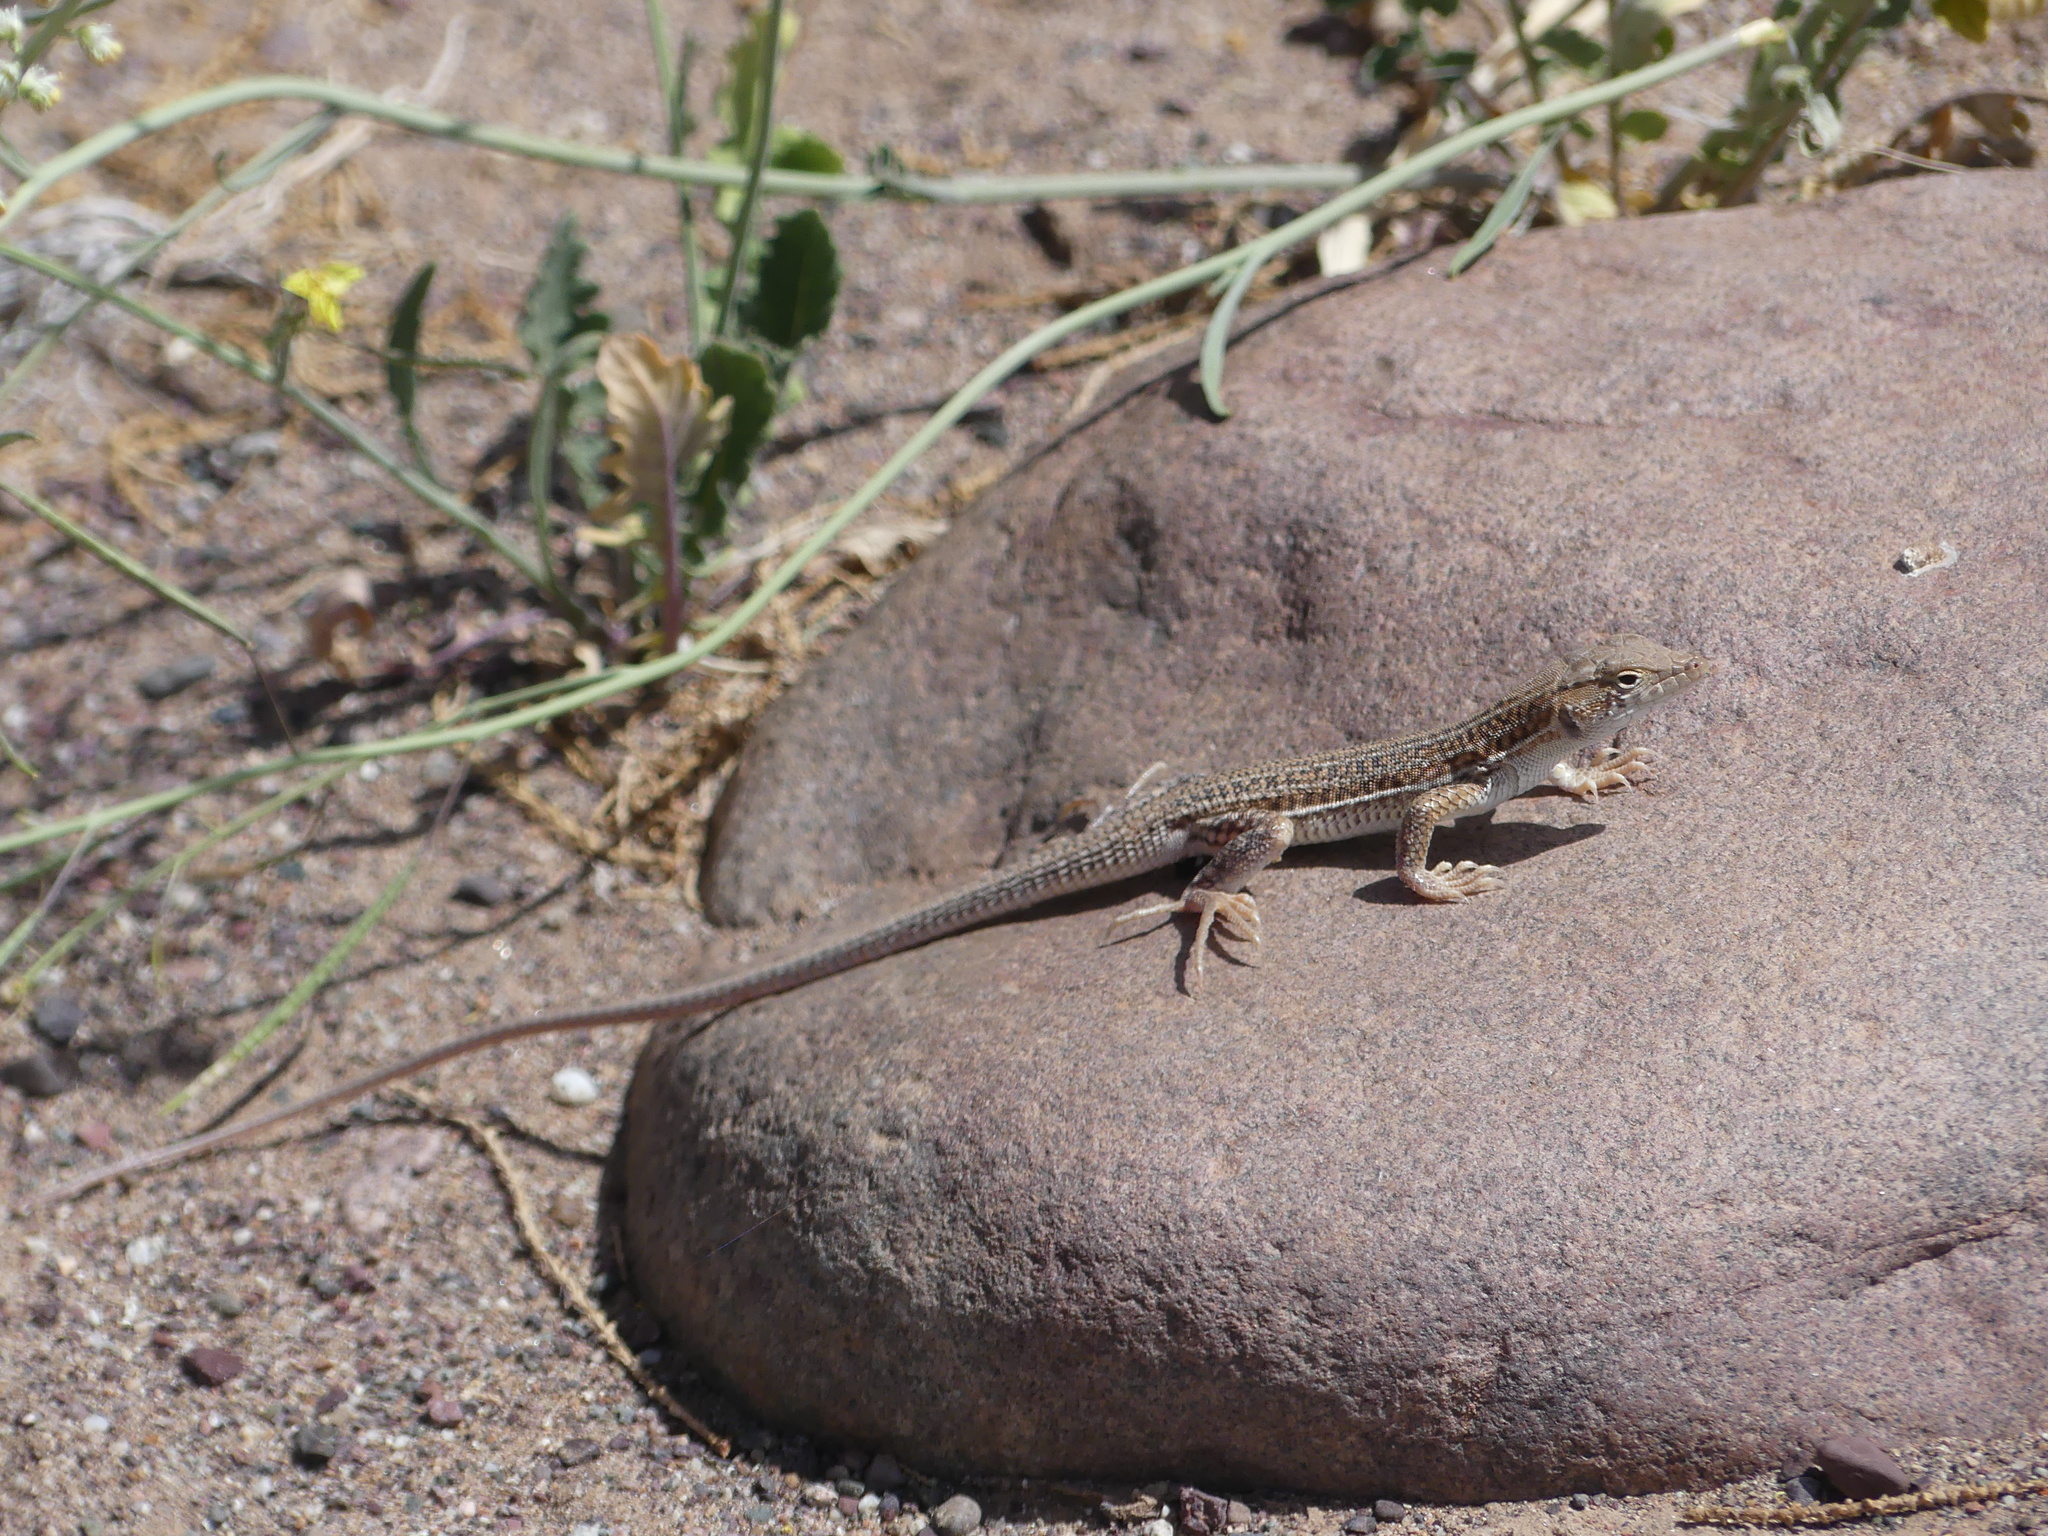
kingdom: Animalia
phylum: Chordata
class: Squamata
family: Lacertidae
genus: Acanthodactylus
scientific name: Acanthodactylus boskianus
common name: Bosc’s fringe-toed lizard
